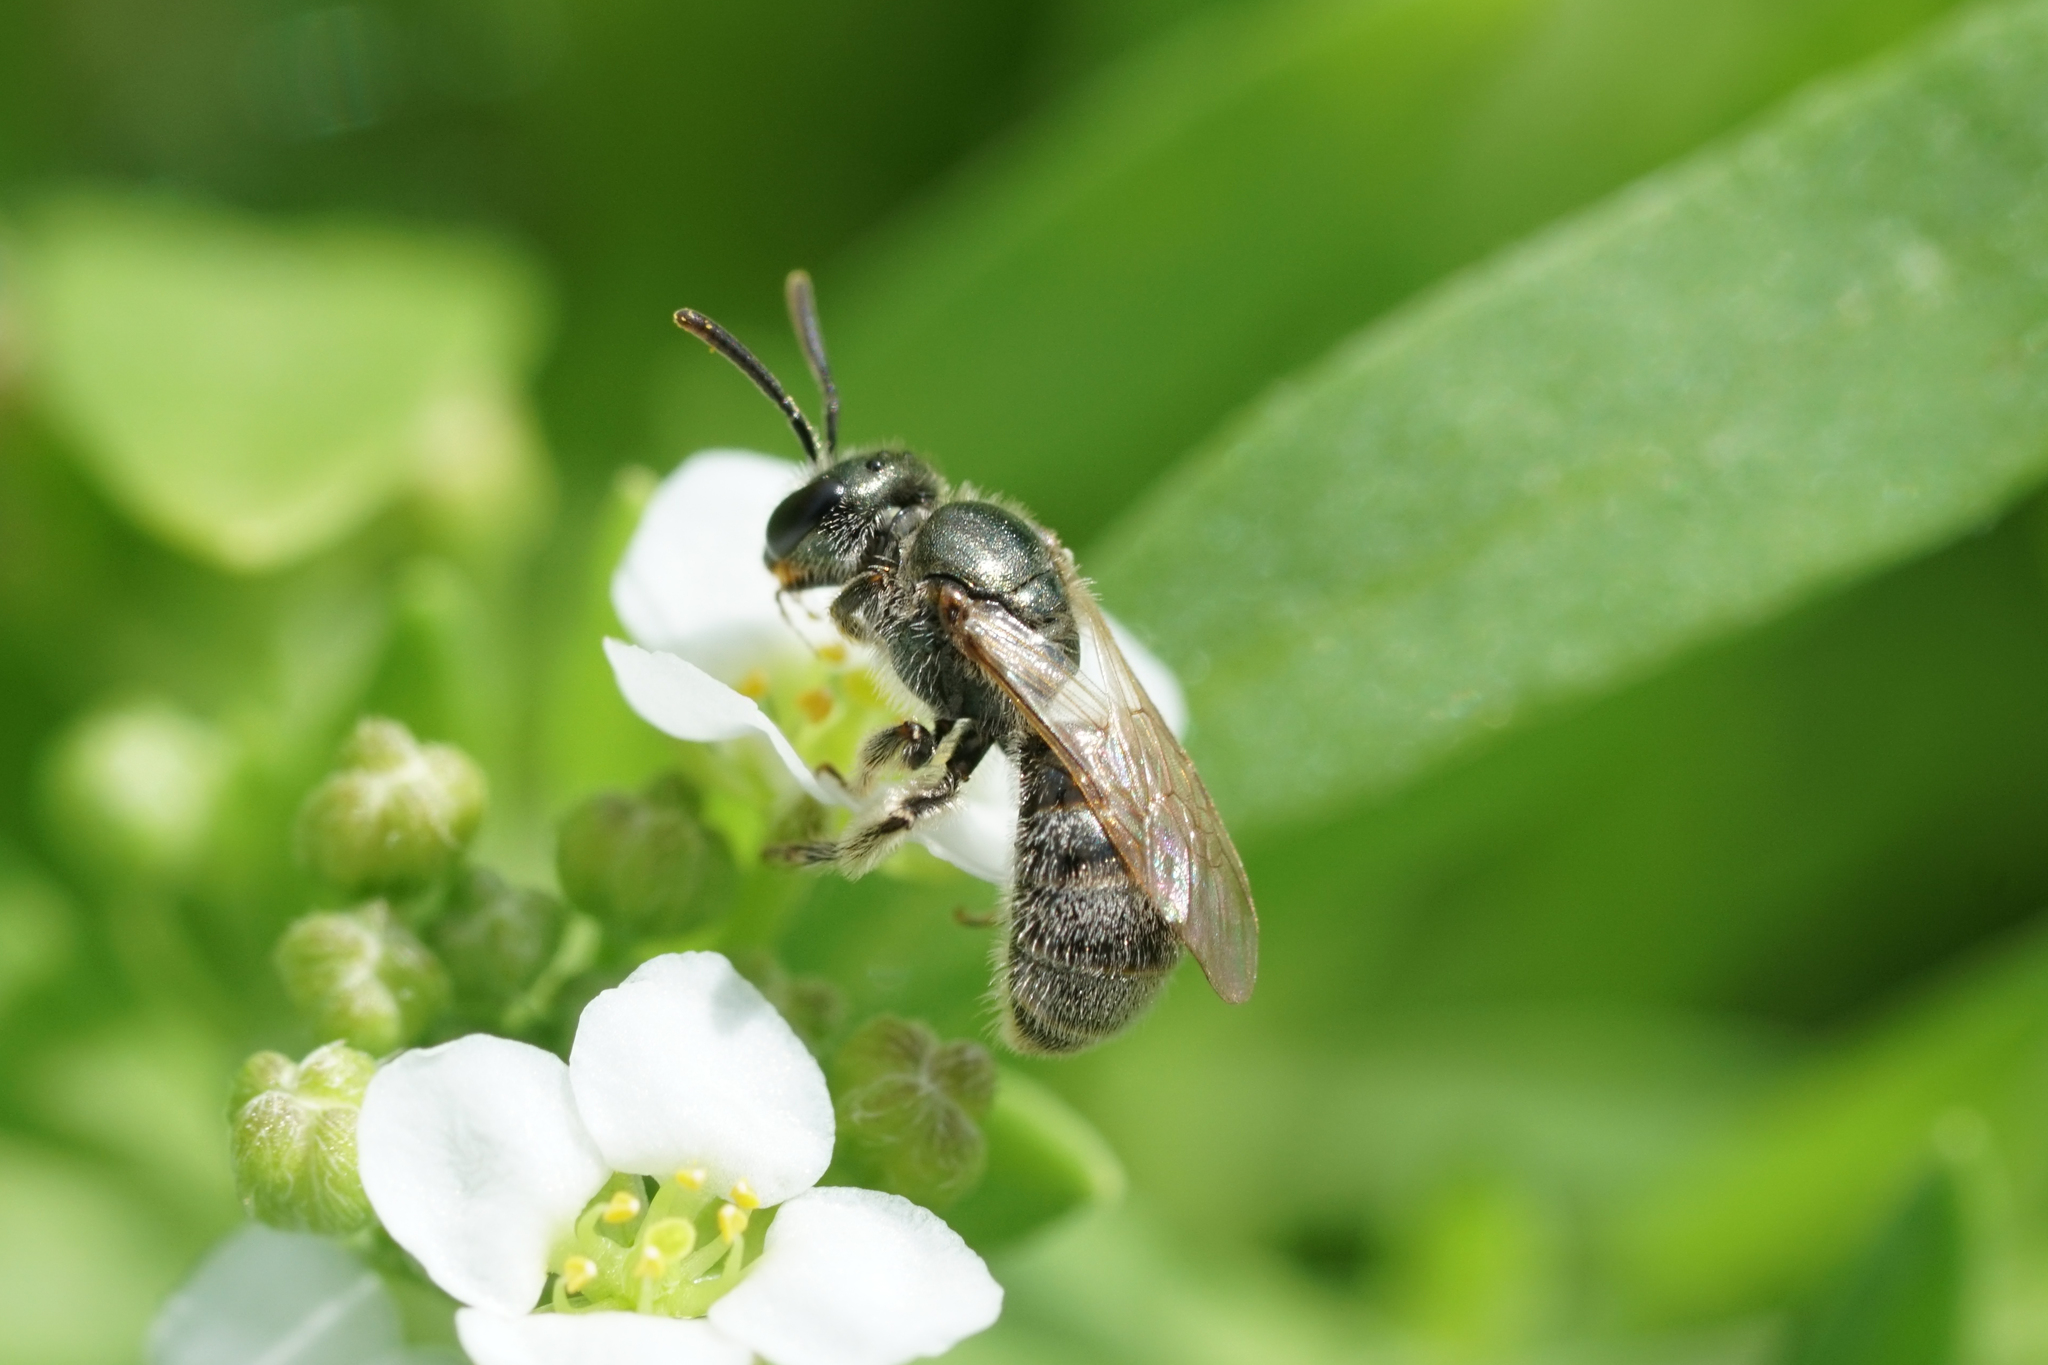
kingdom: Animalia
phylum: Arthropoda
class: Insecta
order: Hymenoptera
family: Halictidae
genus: Dialictus
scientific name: Dialictus
